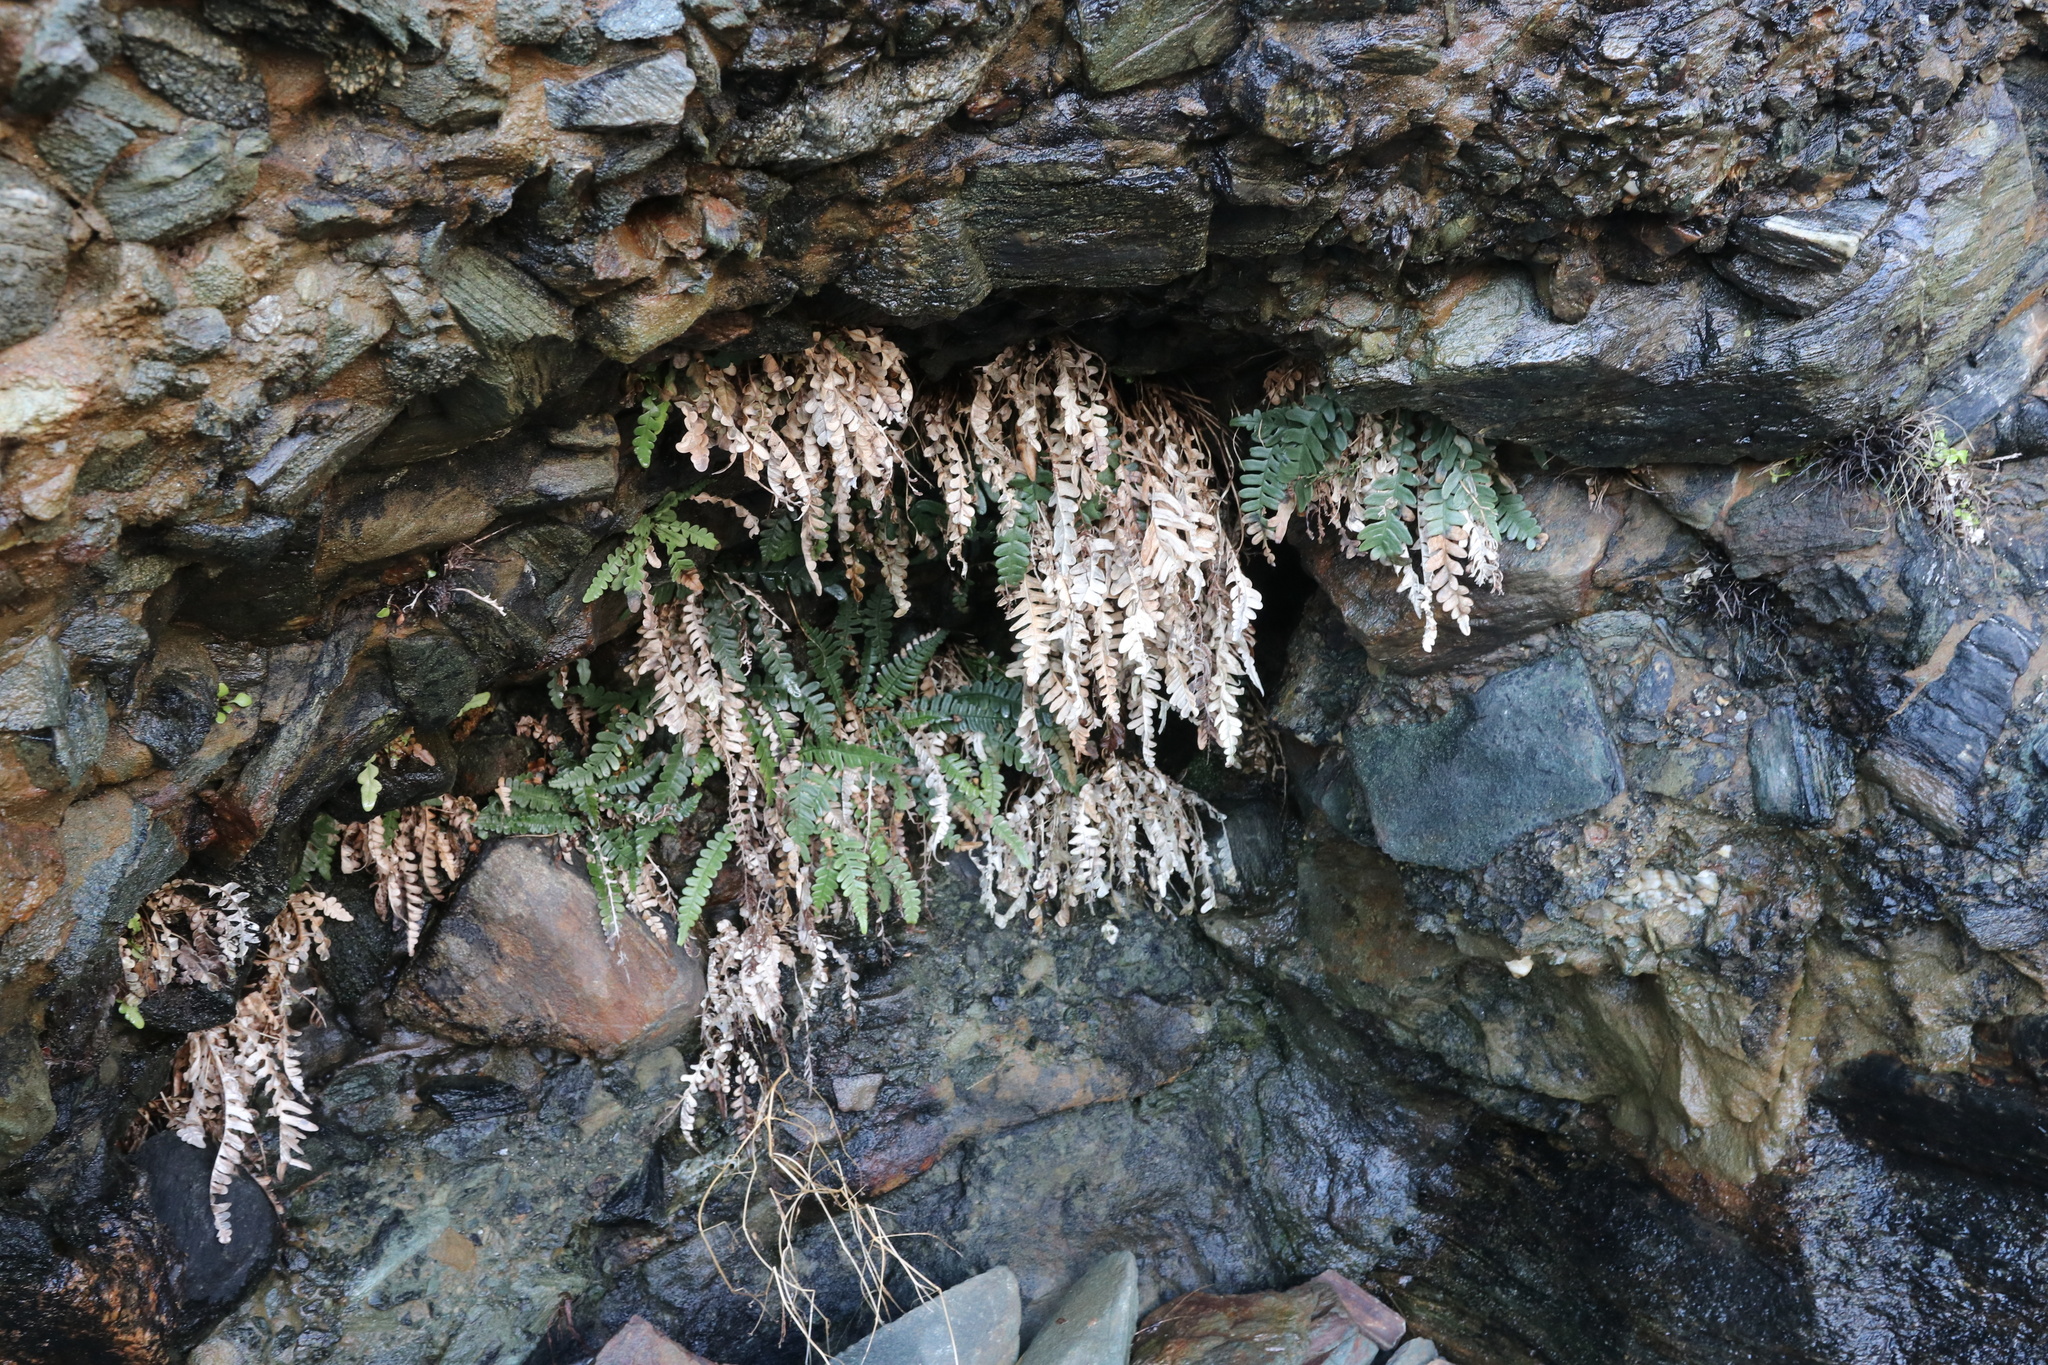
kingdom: Plantae
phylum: Tracheophyta
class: Polypodiopsida
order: Polypodiales
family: Blechnaceae
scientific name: Blechnaceae
